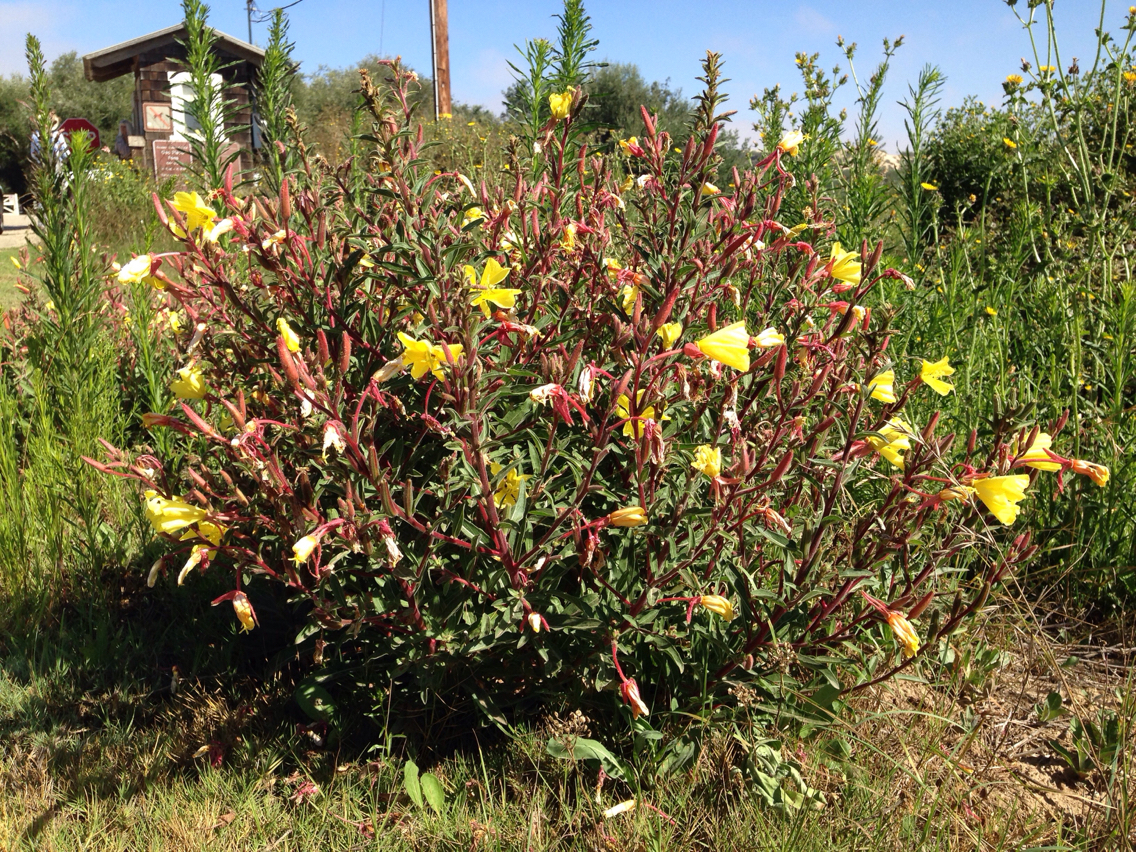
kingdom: Plantae
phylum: Tracheophyta
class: Magnoliopsida
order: Myrtales
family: Onagraceae
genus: Oenothera
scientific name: Oenothera elata
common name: Hooker's evening-primrose
